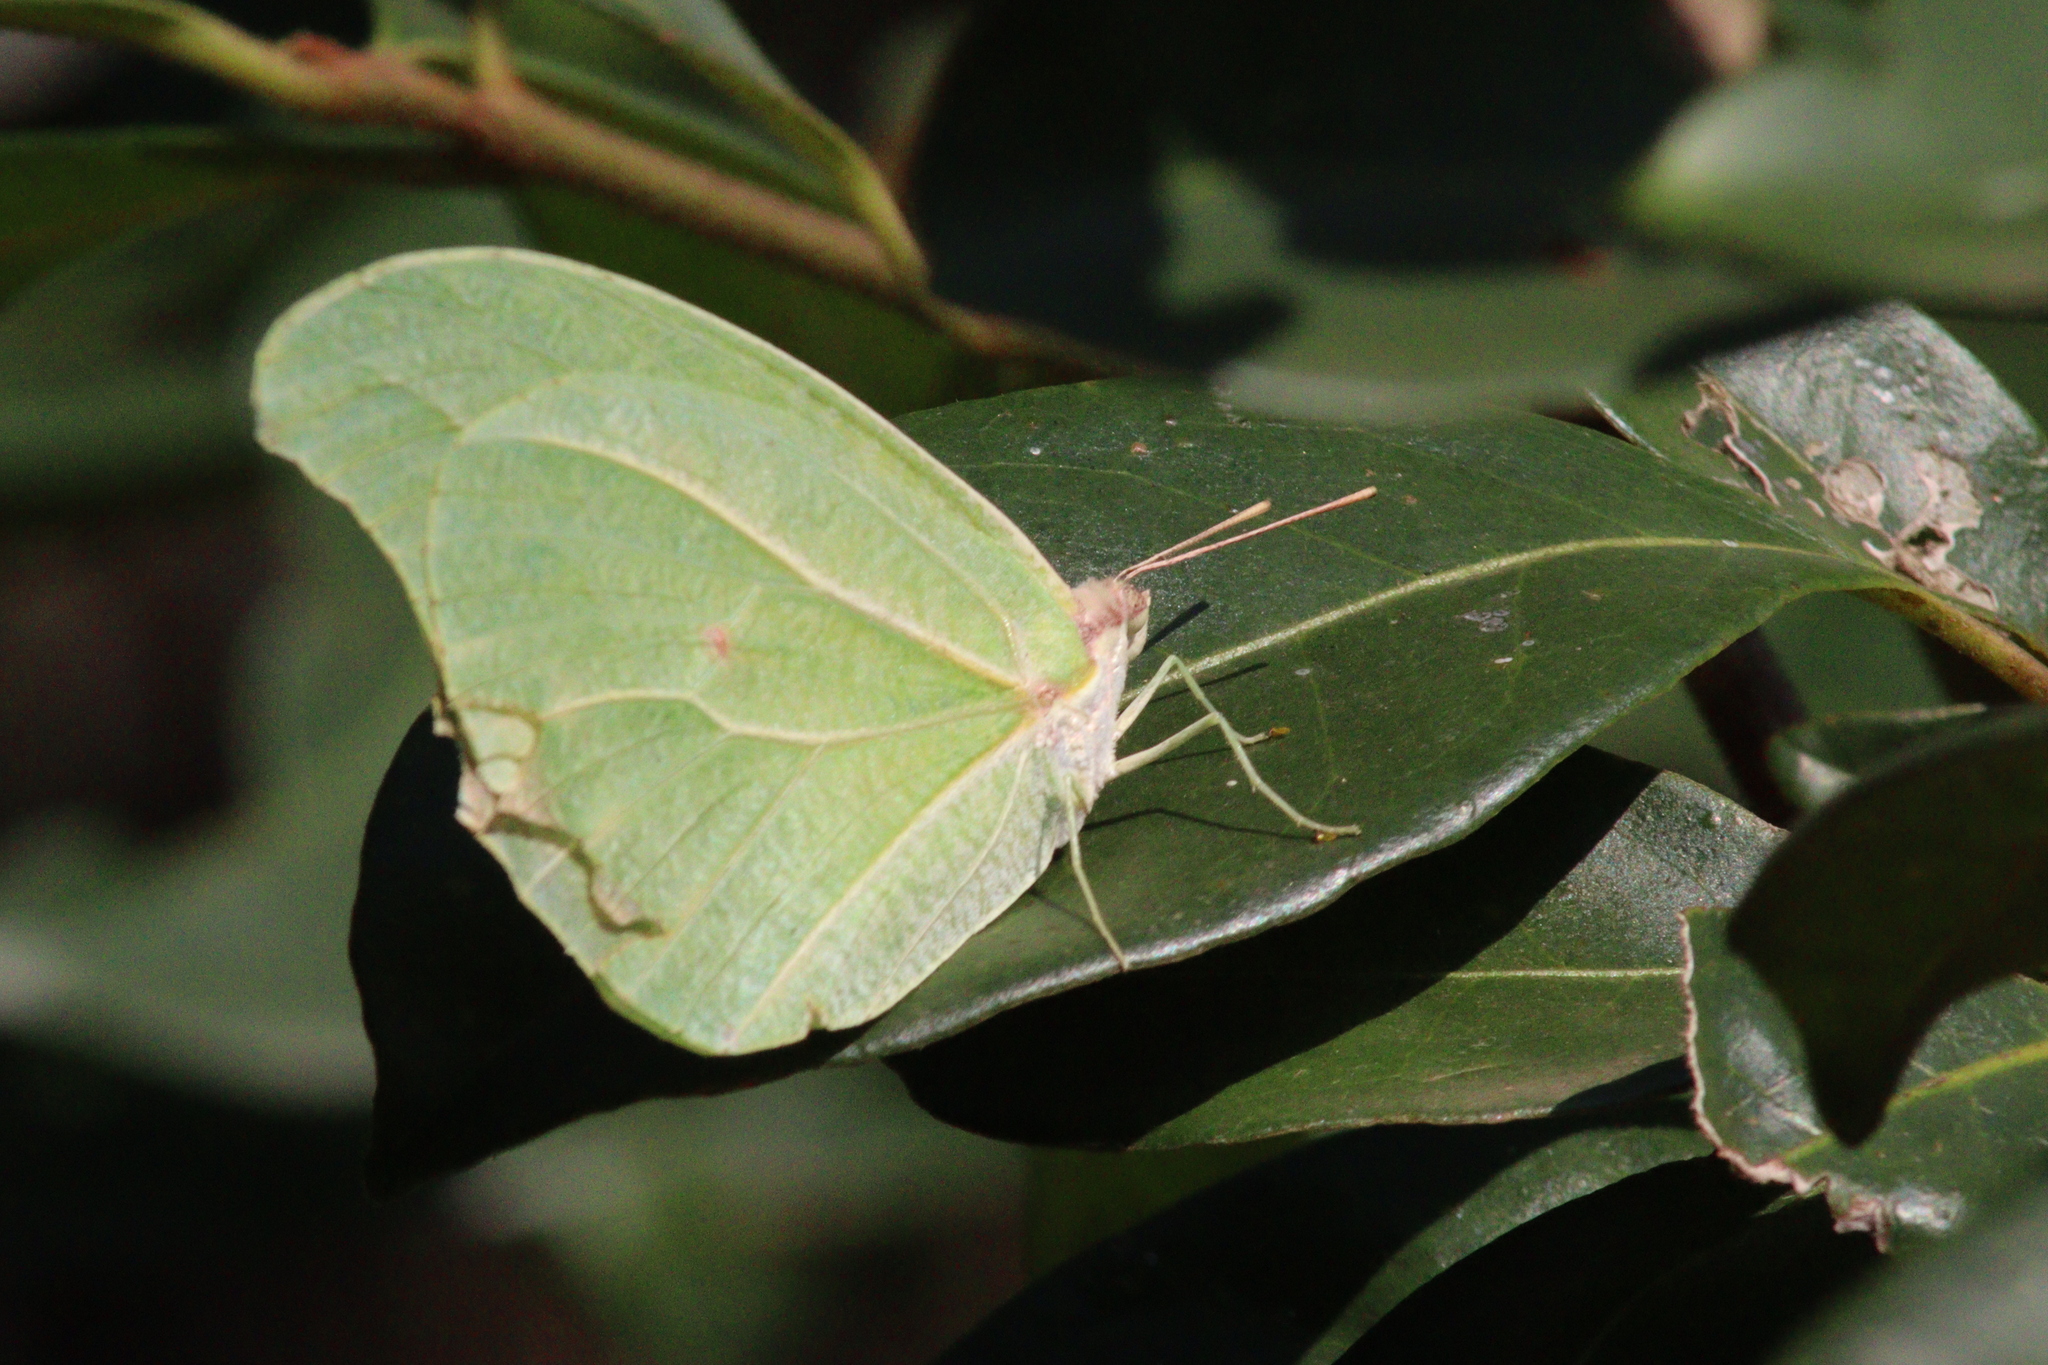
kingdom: Animalia
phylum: Arthropoda
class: Insecta
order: Lepidoptera
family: Pieridae
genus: Anteos
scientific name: Anteos clorinde
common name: White angled sulphur
